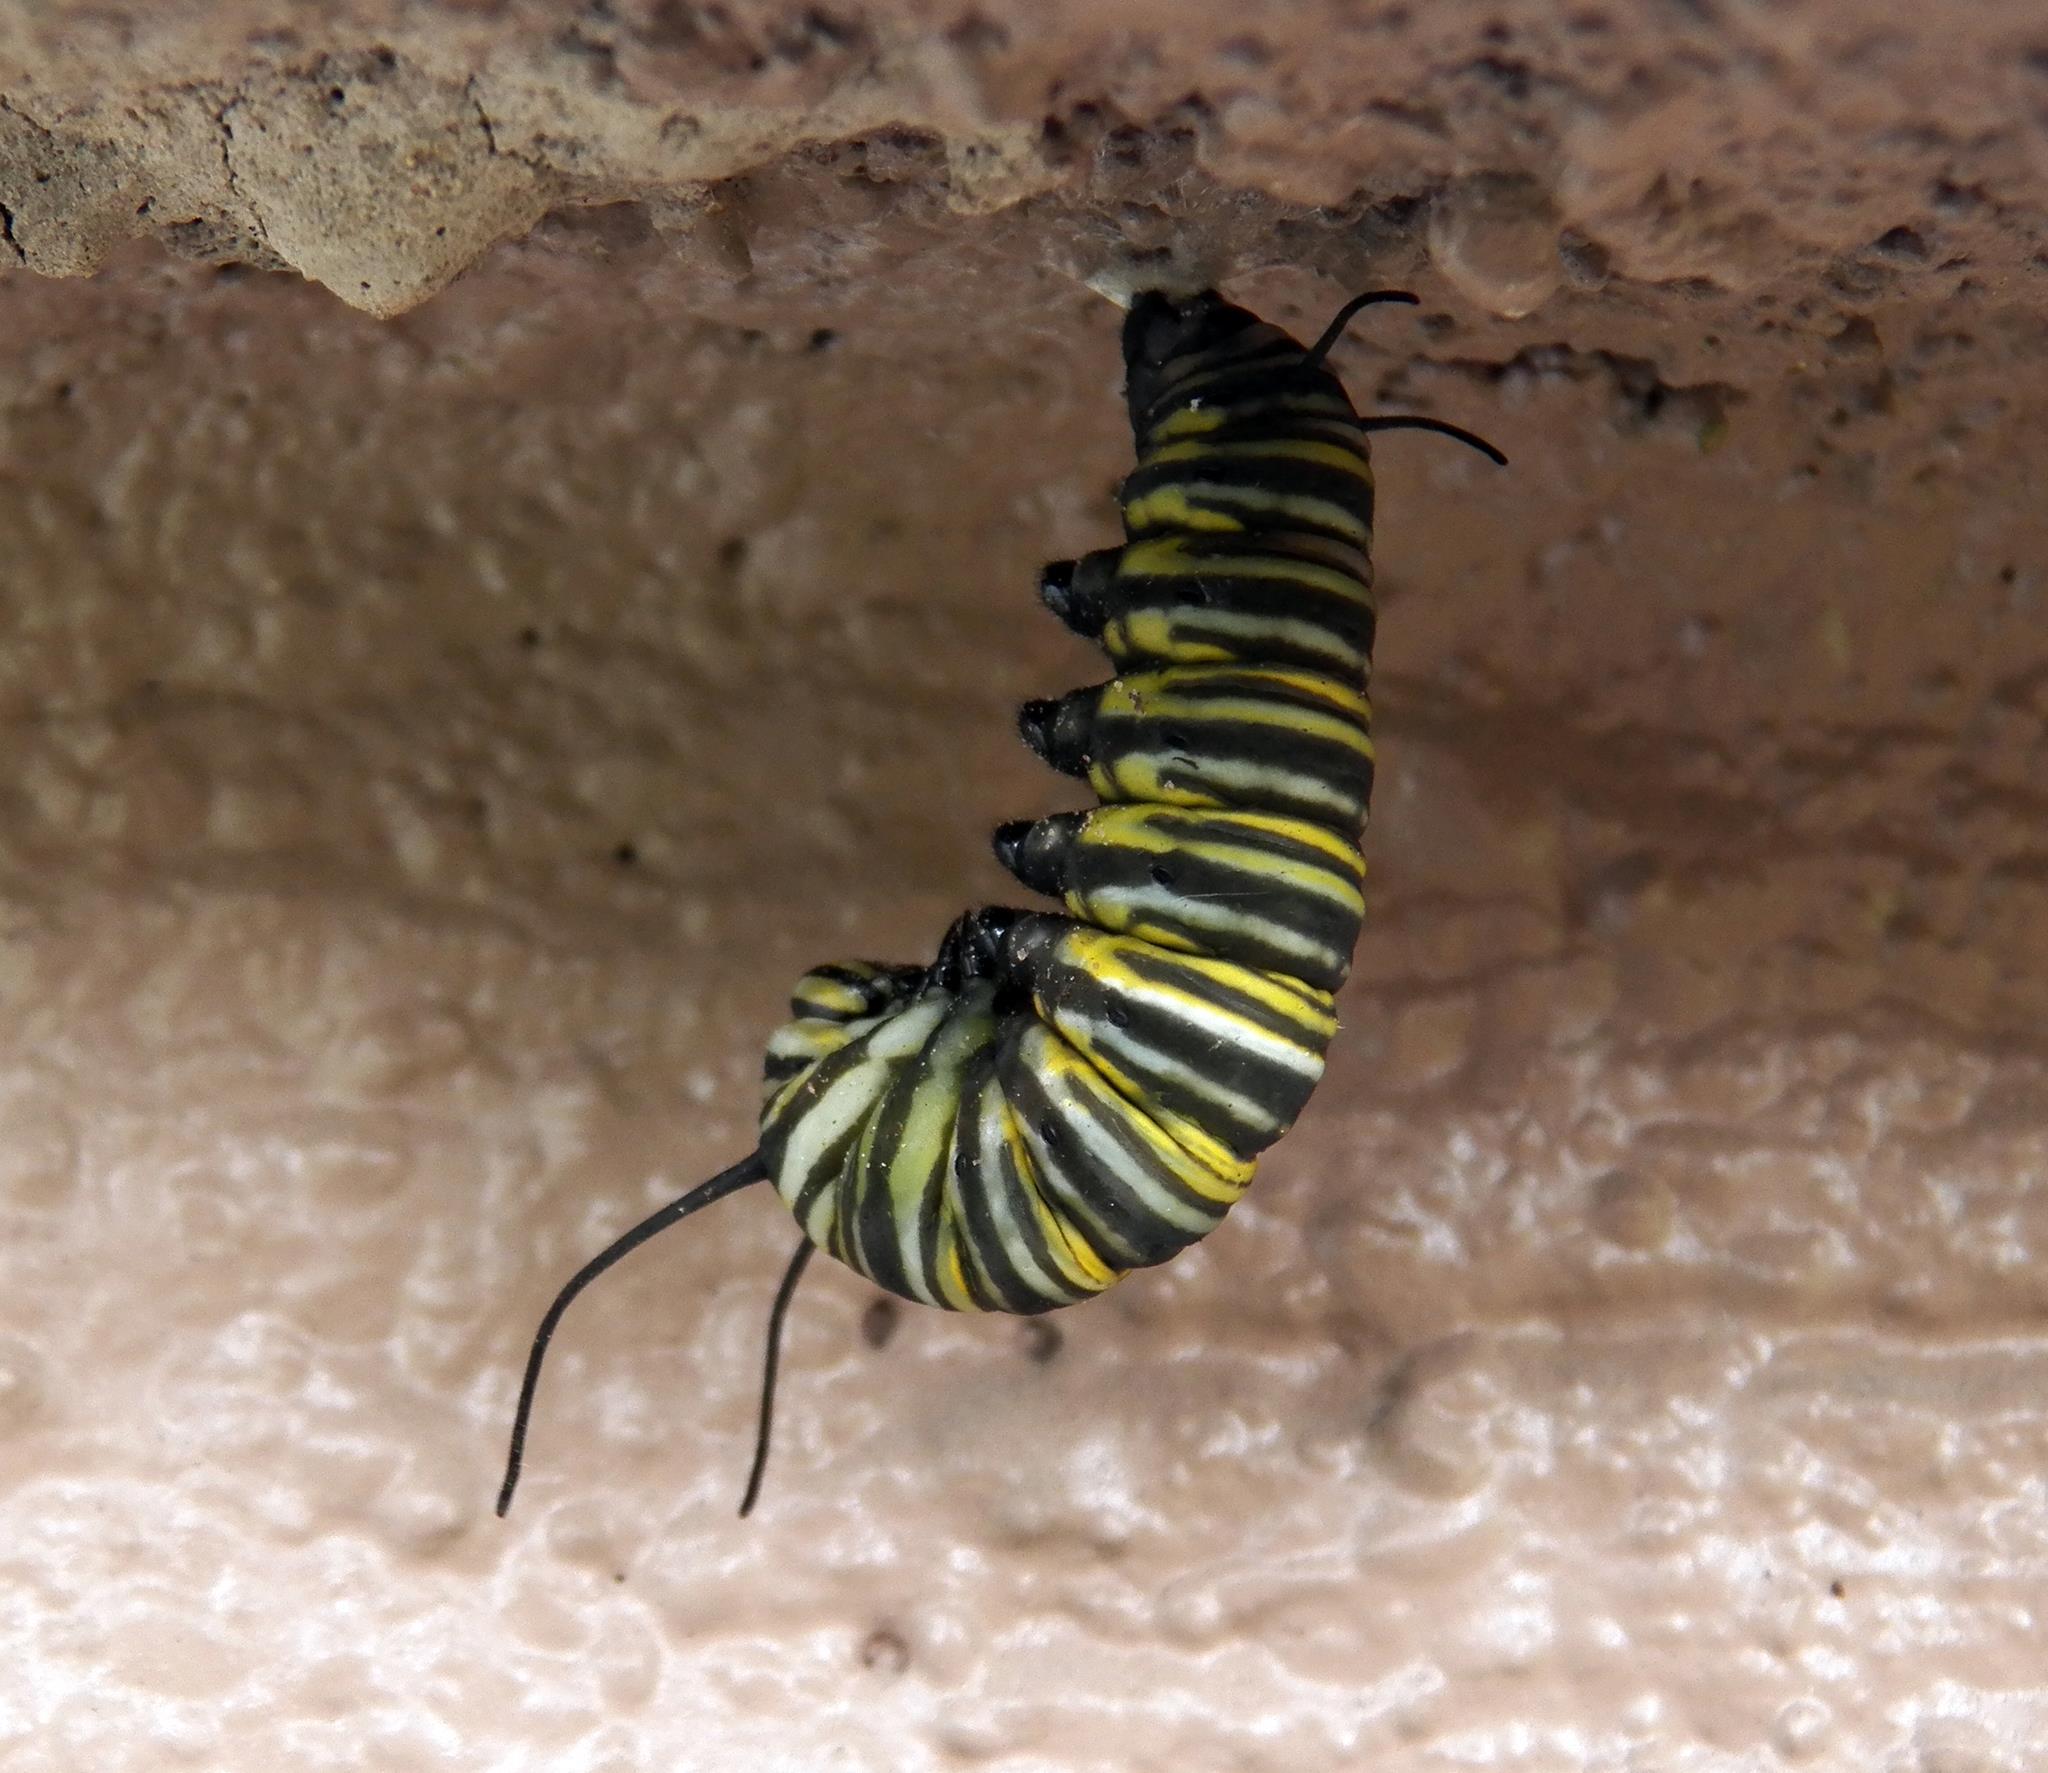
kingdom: Animalia
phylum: Arthropoda
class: Insecta
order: Lepidoptera
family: Nymphalidae
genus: Danaus
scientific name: Danaus plexippus
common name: Monarch
